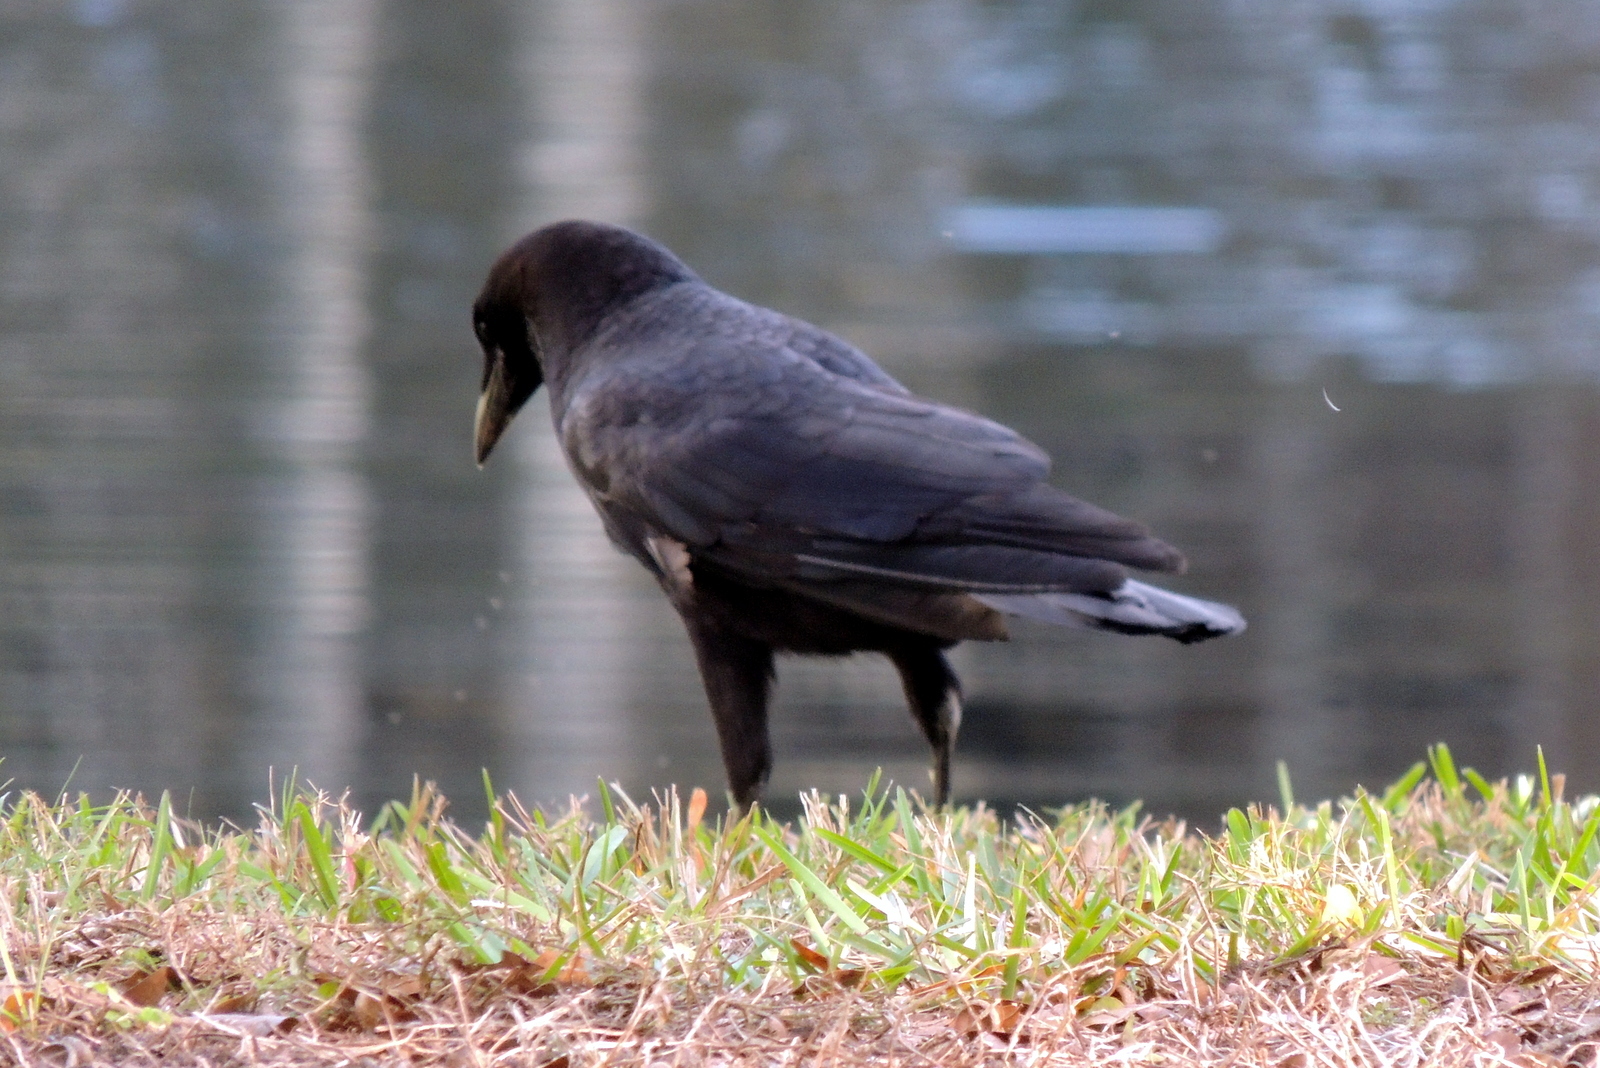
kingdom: Animalia
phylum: Chordata
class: Aves
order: Passeriformes
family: Corvidae
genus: Corvus
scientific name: Corvus
